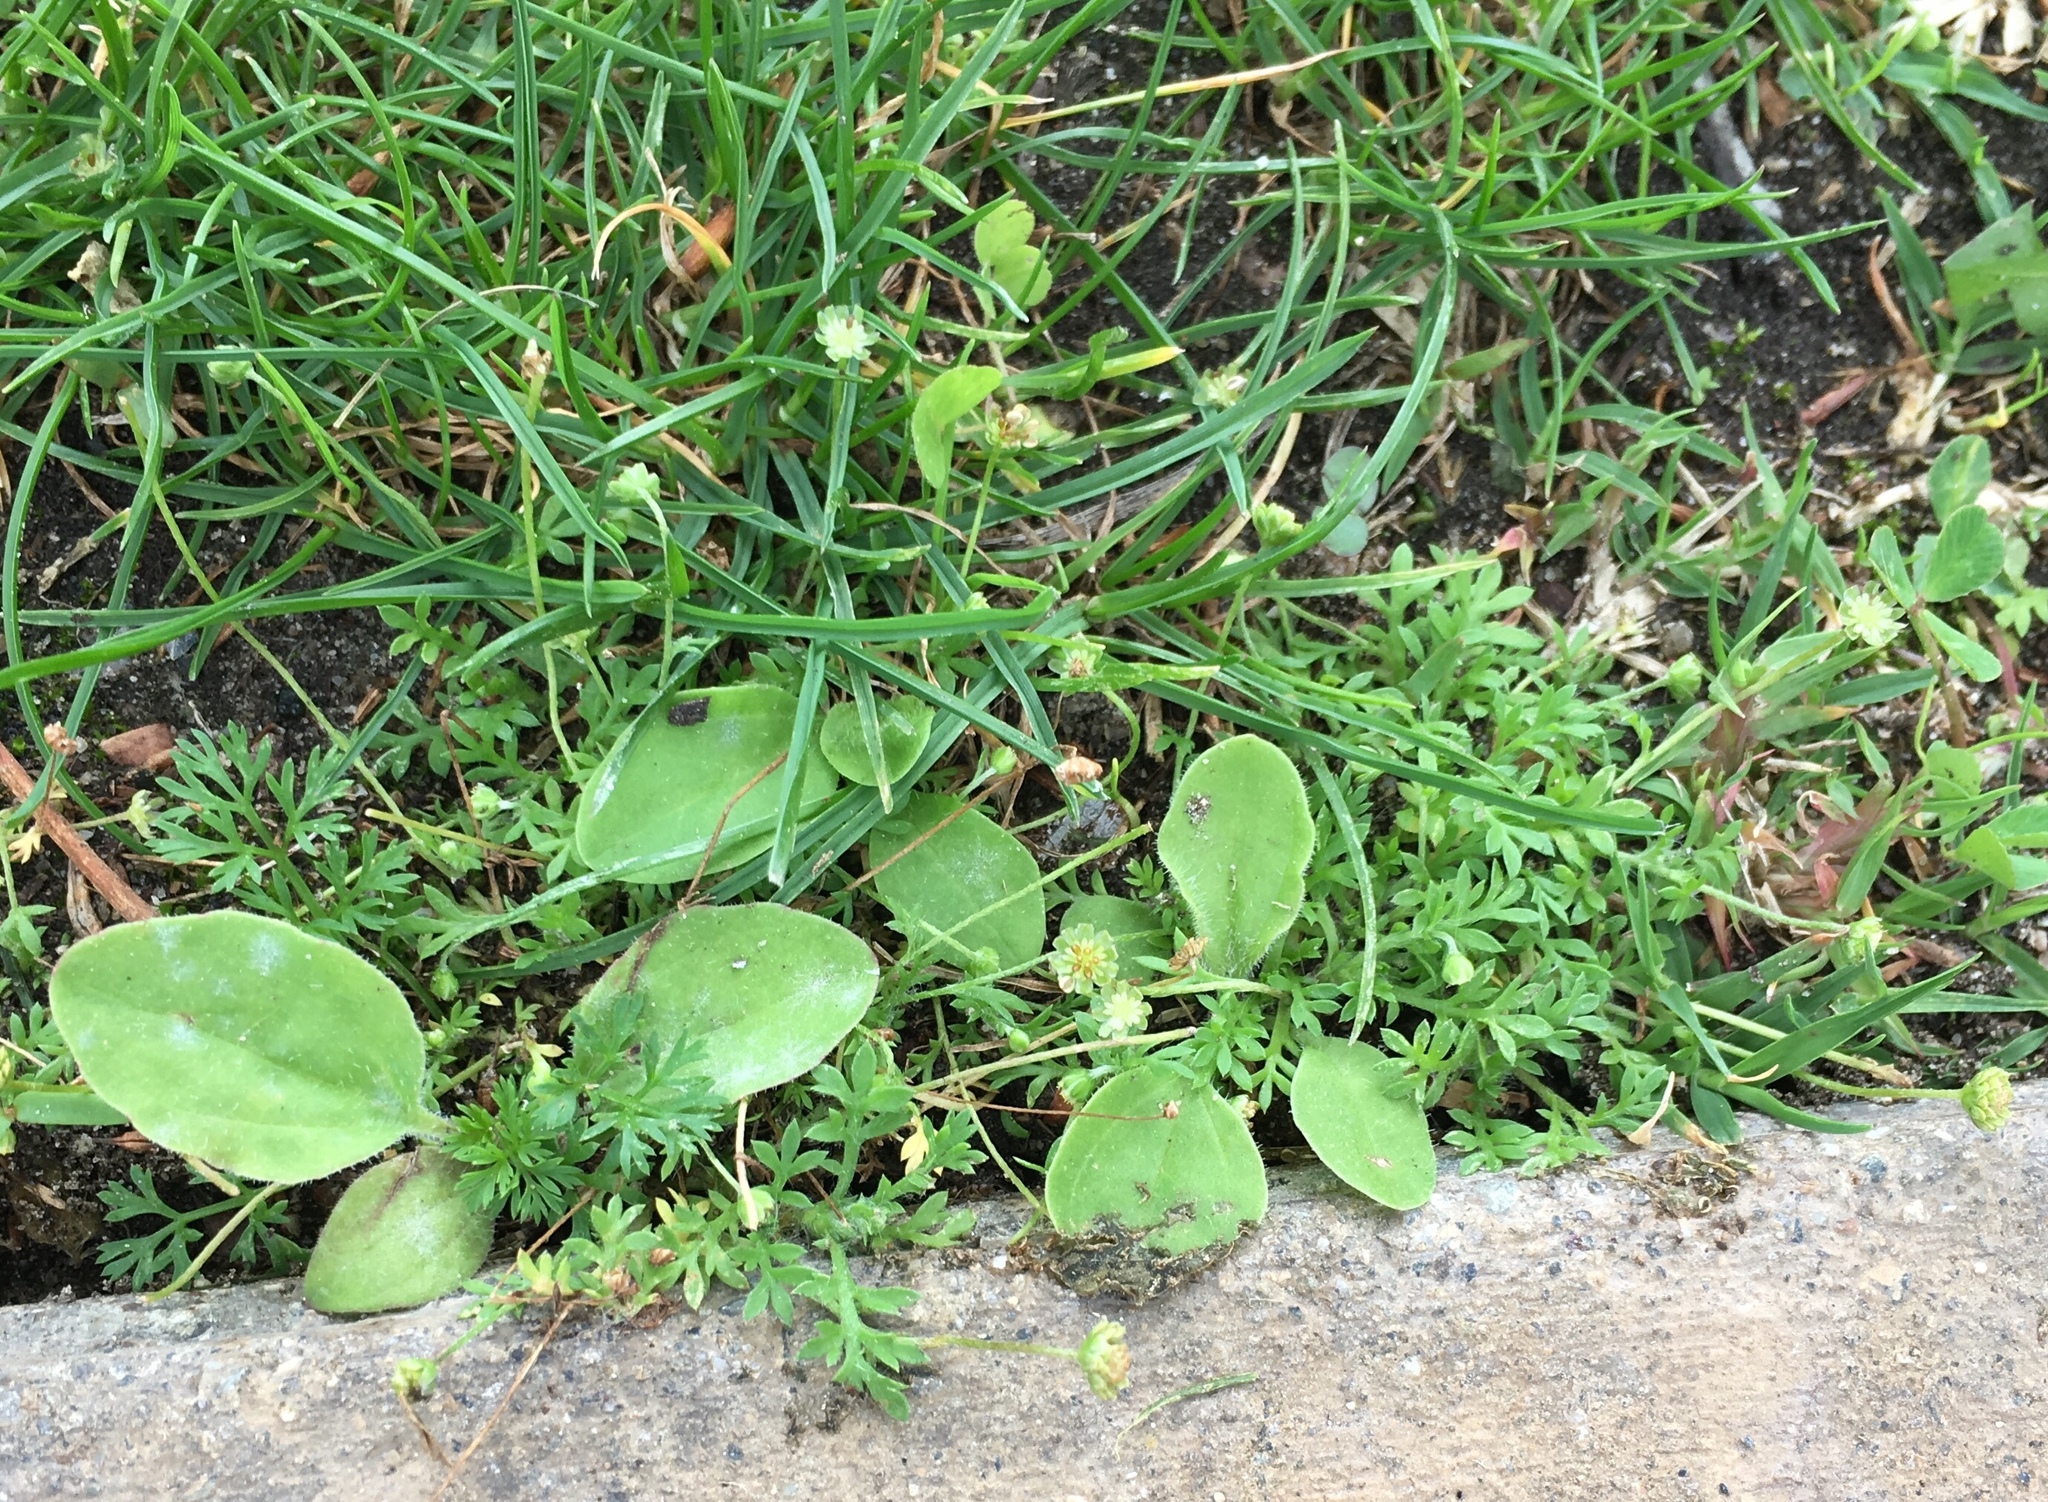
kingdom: Plantae
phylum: Tracheophyta
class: Magnoliopsida
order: Asterales
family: Asteraceae
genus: Cotula
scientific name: Cotula australis
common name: Australian waterbuttons
